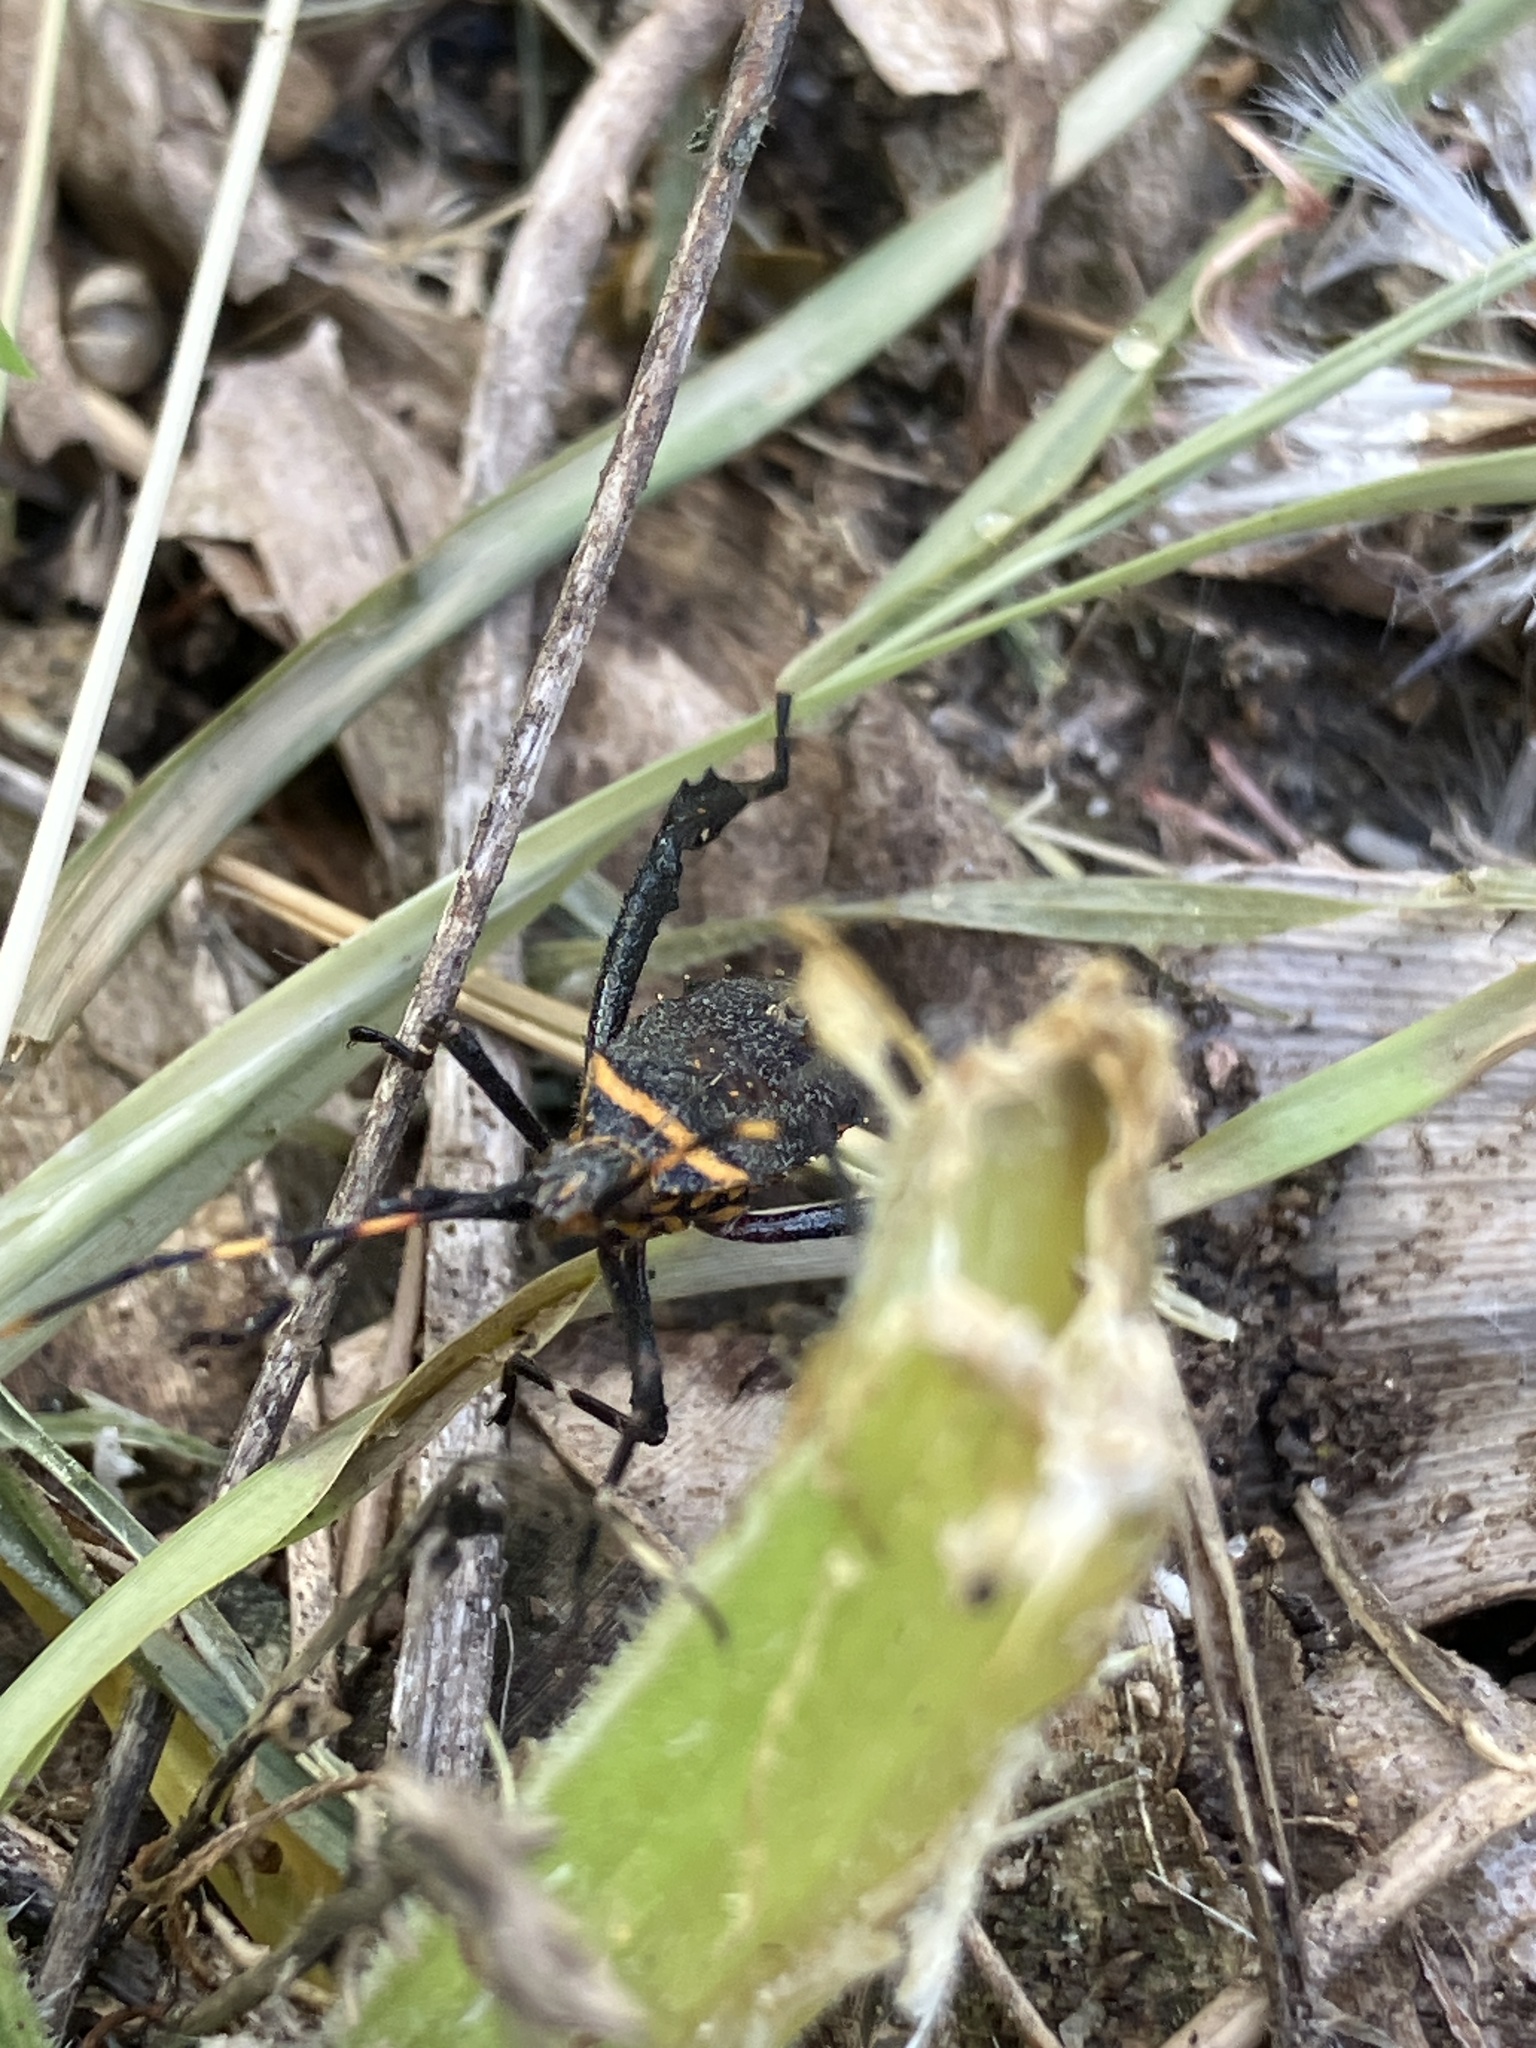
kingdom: Animalia
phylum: Arthropoda
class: Insecta
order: Hemiptera
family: Coreidae
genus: Leptoglossus
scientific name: Leptoglossus gonagra
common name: Citron bug
